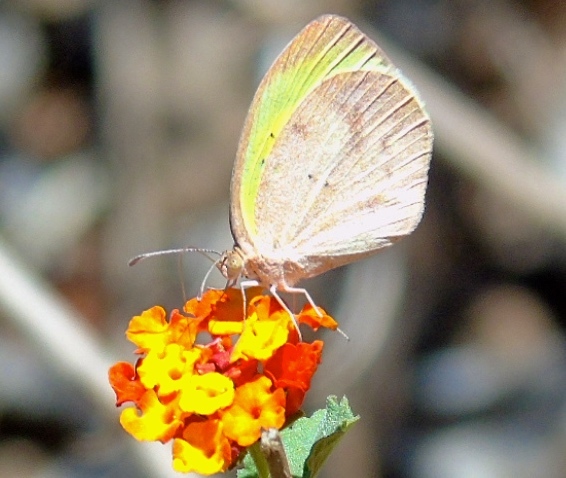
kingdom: Animalia
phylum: Arthropoda
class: Insecta
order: Lepidoptera
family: Pieridae
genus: Eurema
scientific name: Eurema daira
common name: Barred sulphur
